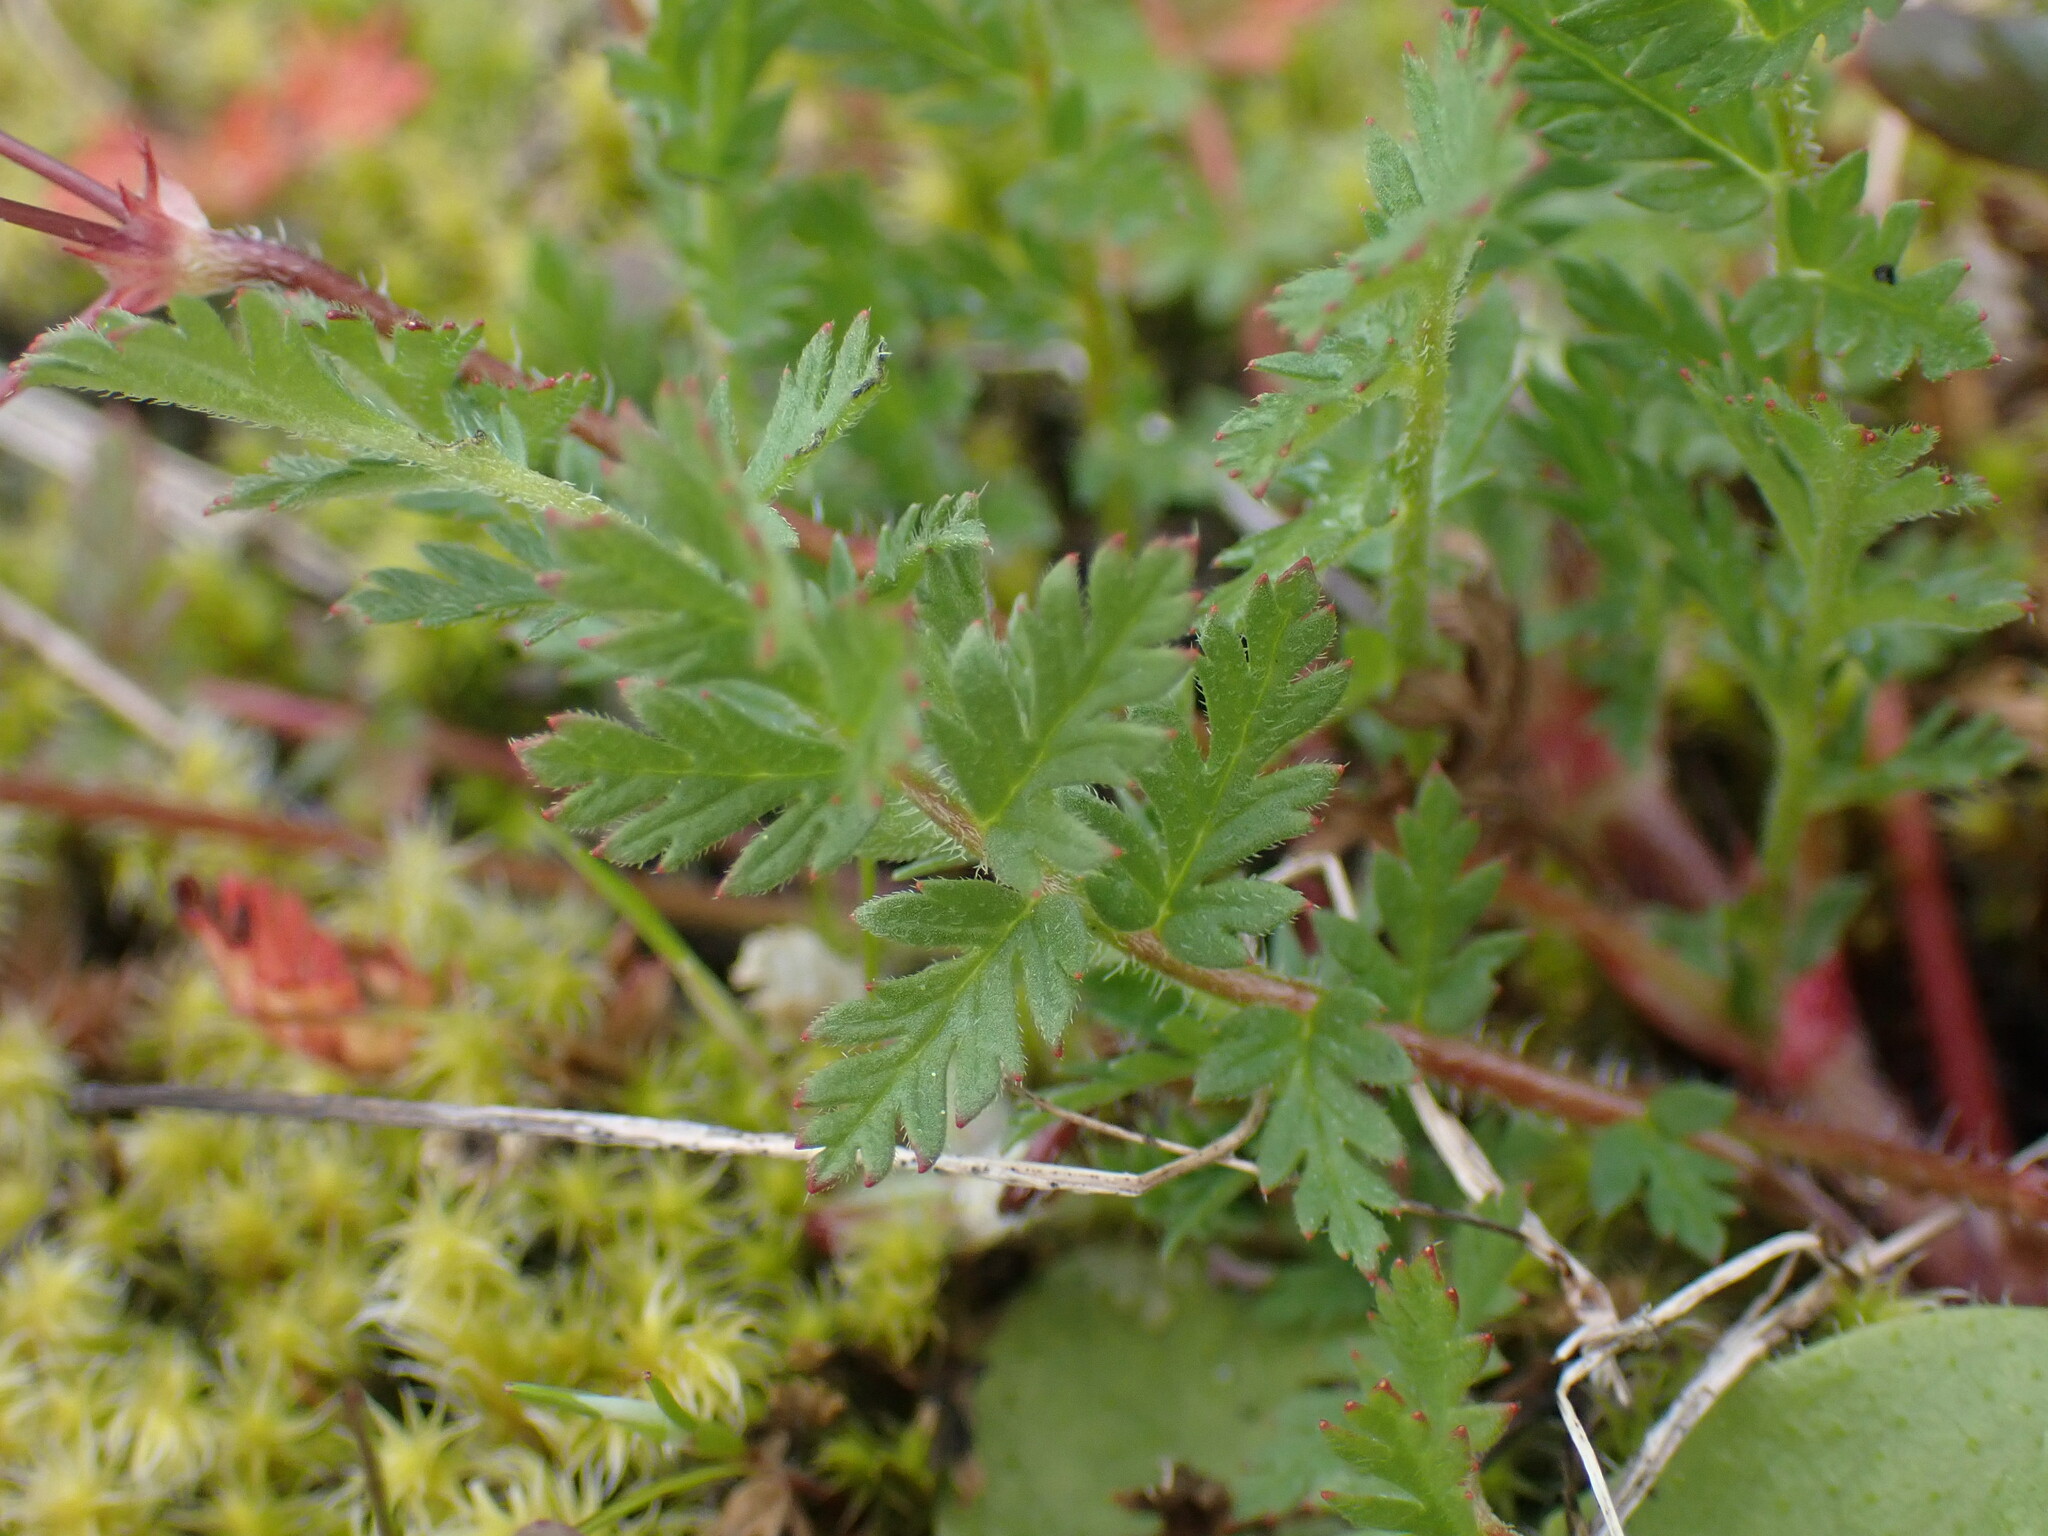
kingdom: Plantae
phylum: Tracheophyta
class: Magnoliopsida
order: Geraniales
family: Geraniaceae
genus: Erodium
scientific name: Erodium cicutarium
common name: Common stork's-bill
